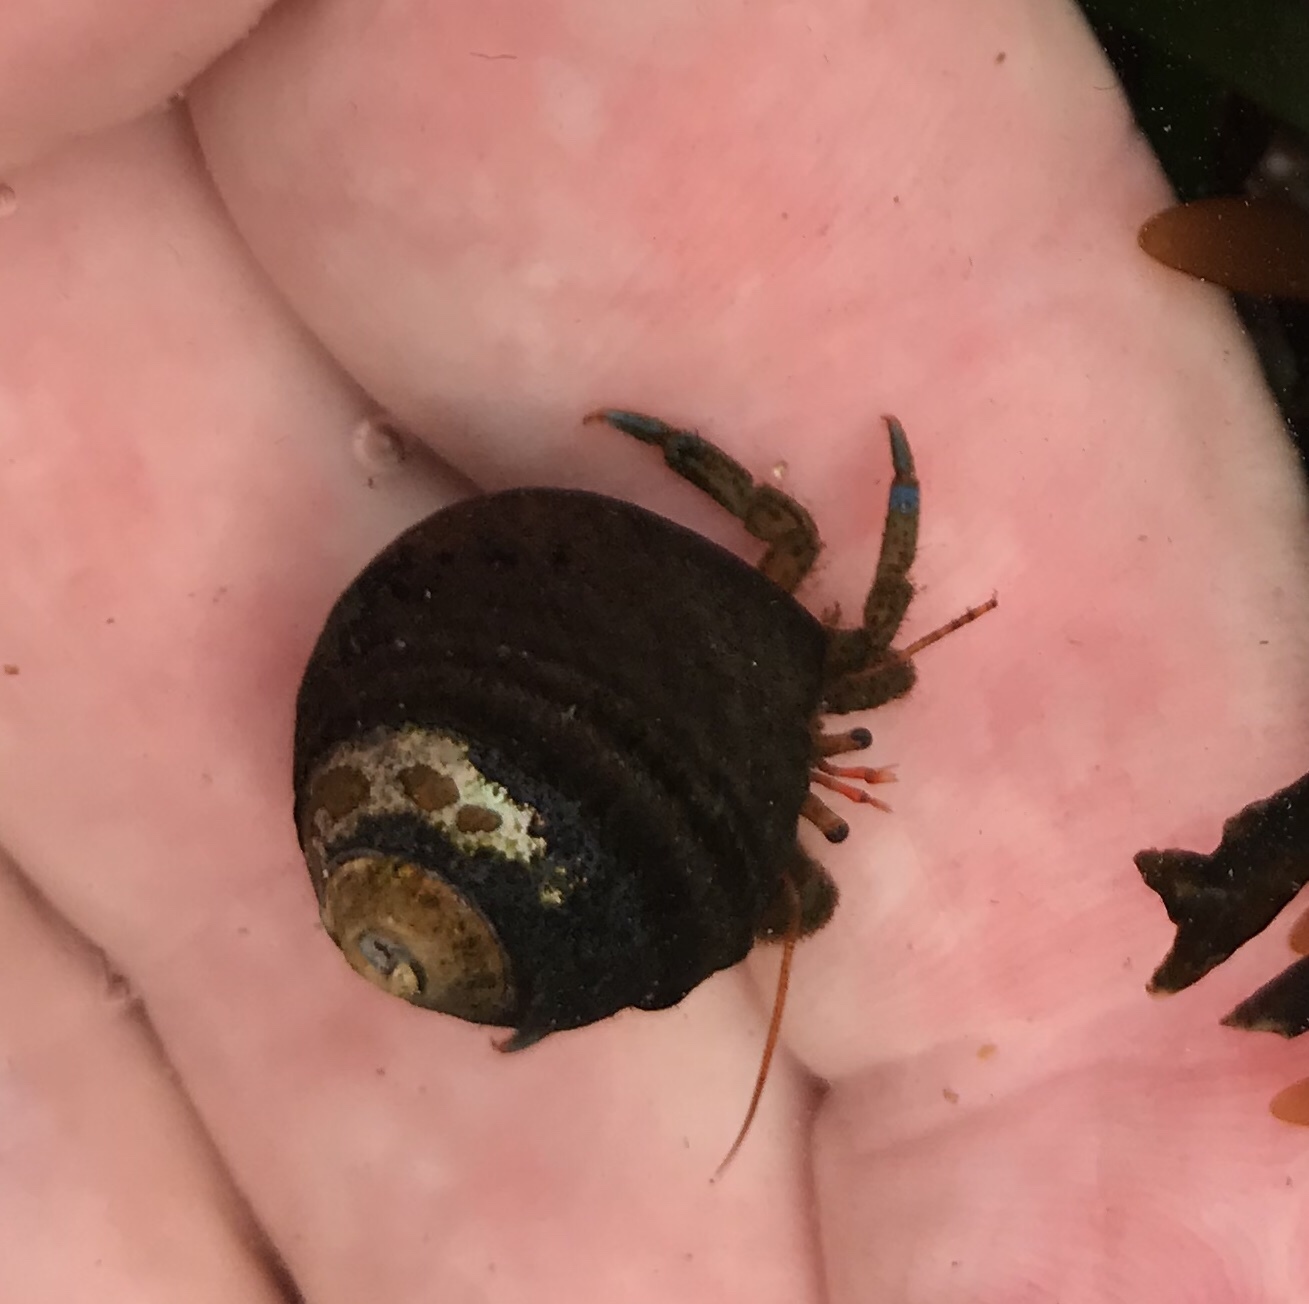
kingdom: Animalia
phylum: Arthropoda
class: Malacostraca
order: Decapoda
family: Paguridae
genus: Pagurus
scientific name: Pagurus samuelis
